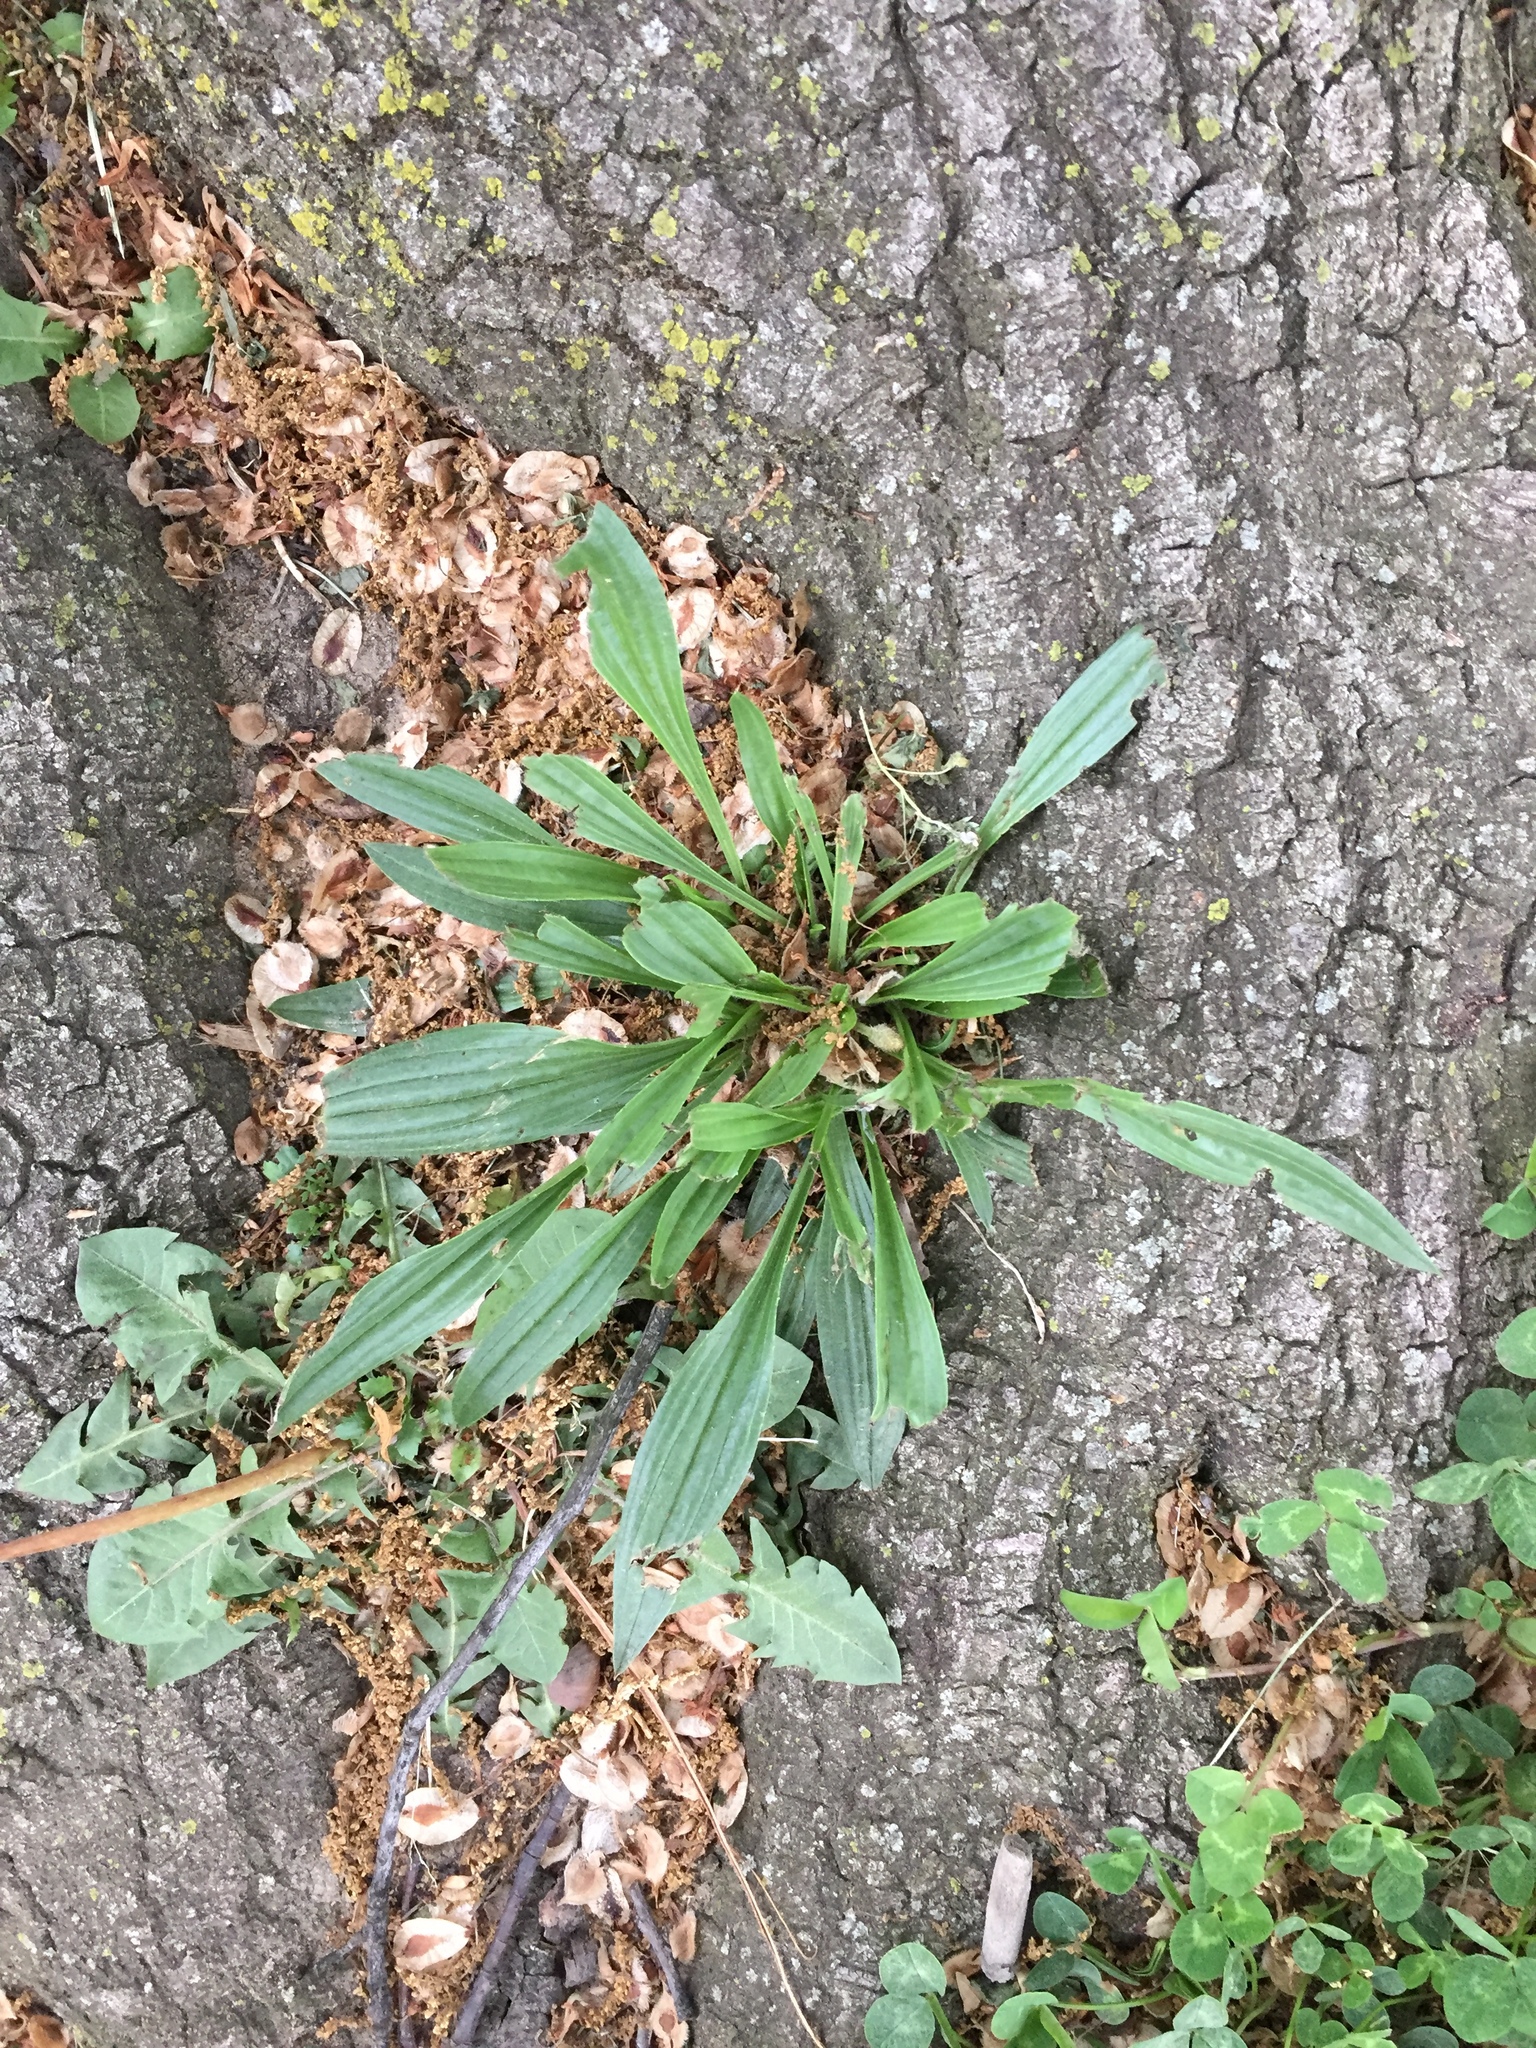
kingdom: Plantae
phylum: Tracheophyta
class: Magnoliopsida
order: Lamiales
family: Plantaginaceae
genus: Plantago
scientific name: Plantago lanceolata
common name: Ribwort plantain
